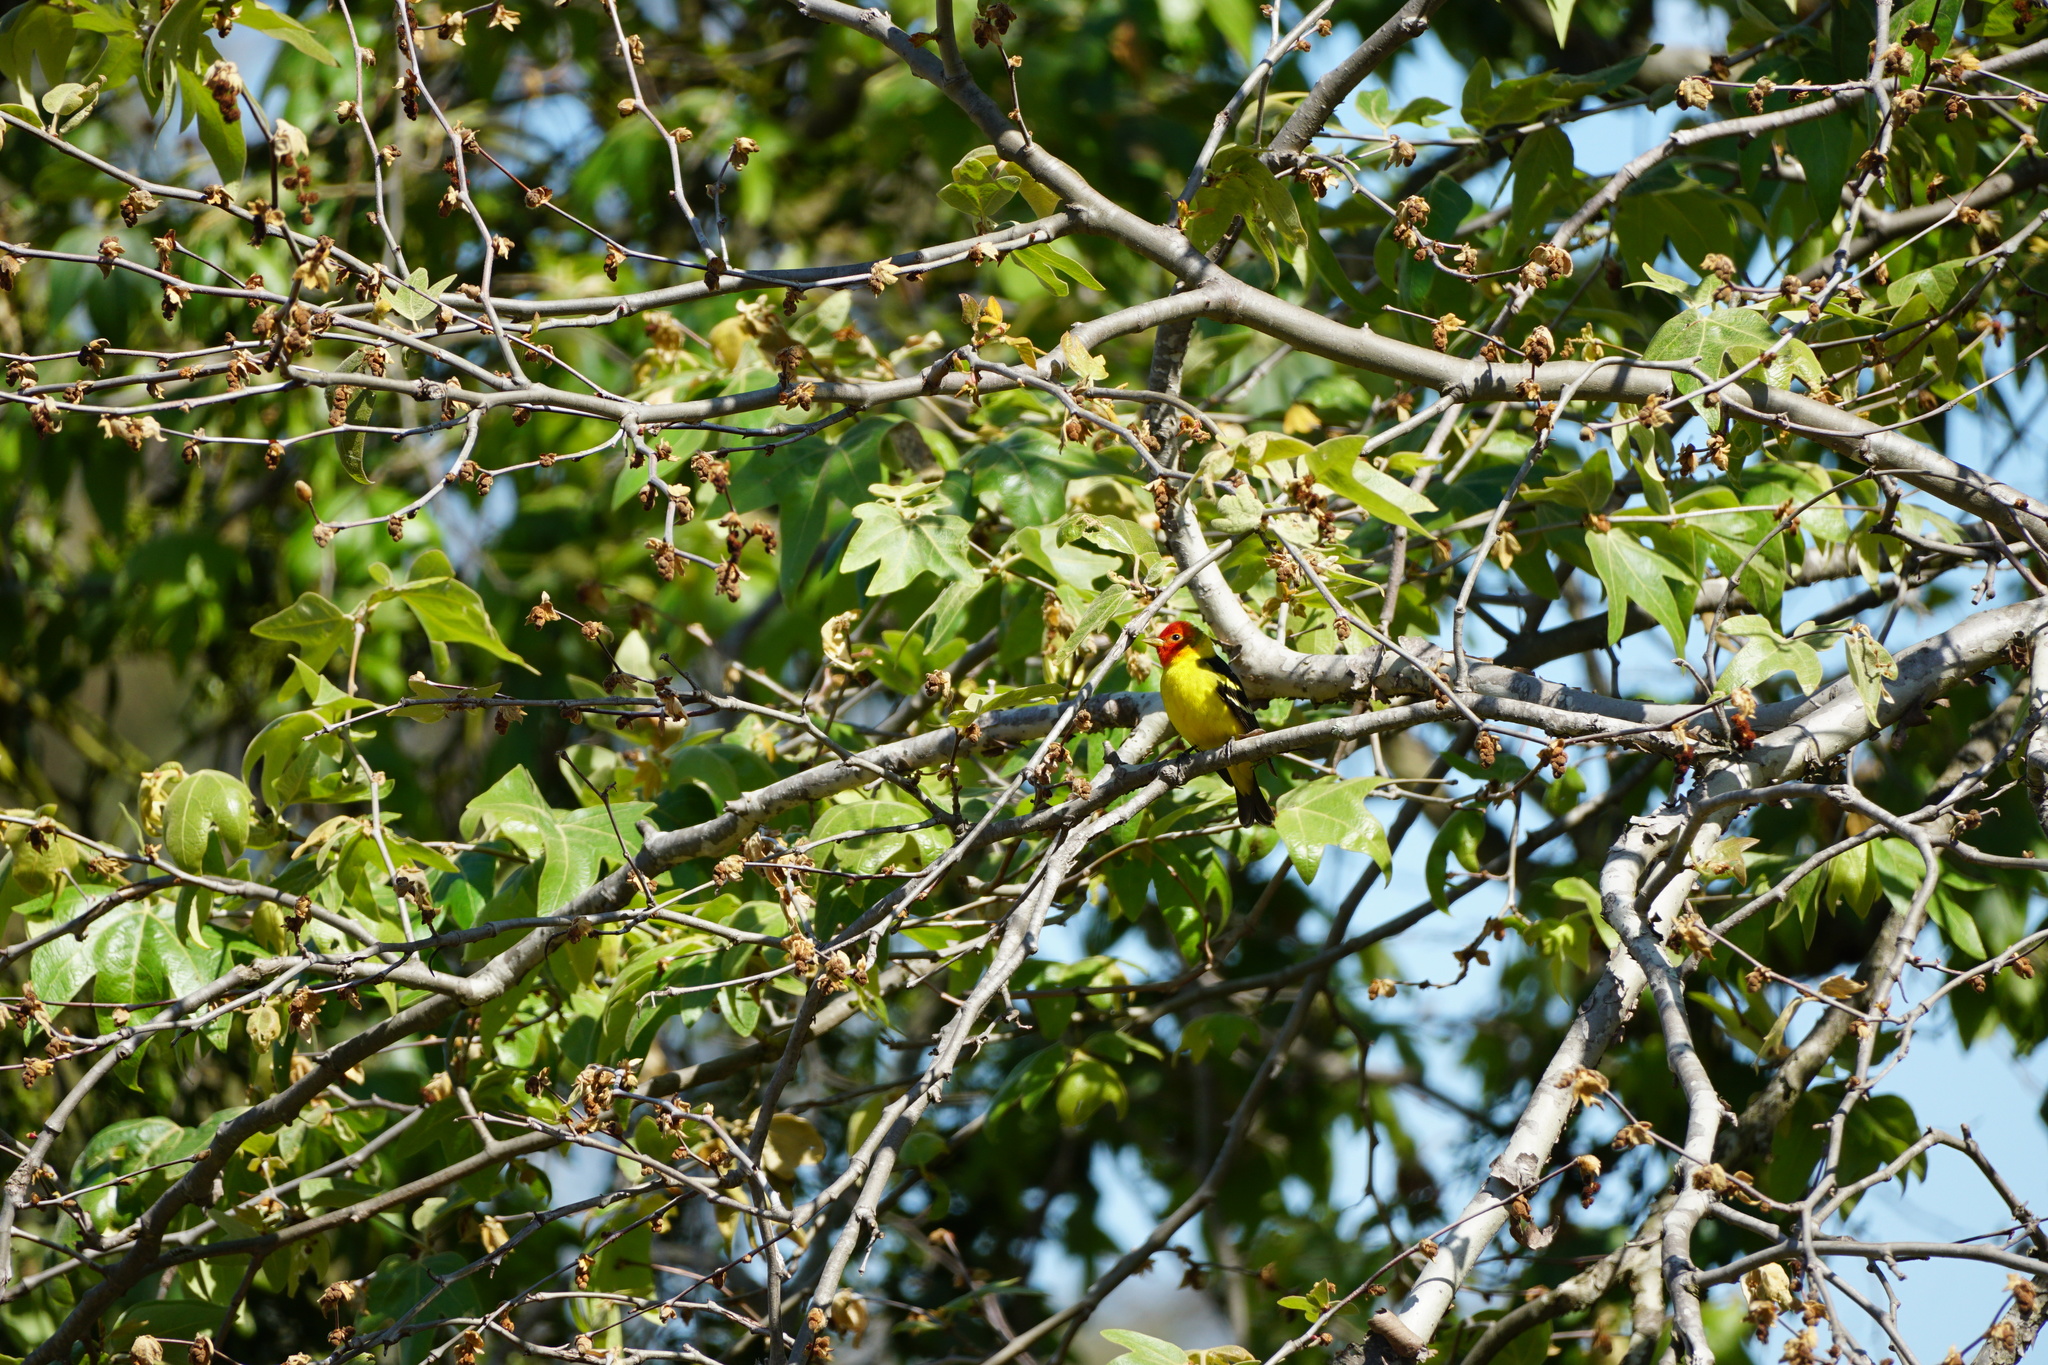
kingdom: Animalia
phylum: Chordata
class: Aves
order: Passeriformes
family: Cardinalidae
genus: Piranga
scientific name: Piranga ludoviciana
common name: Western tanager
